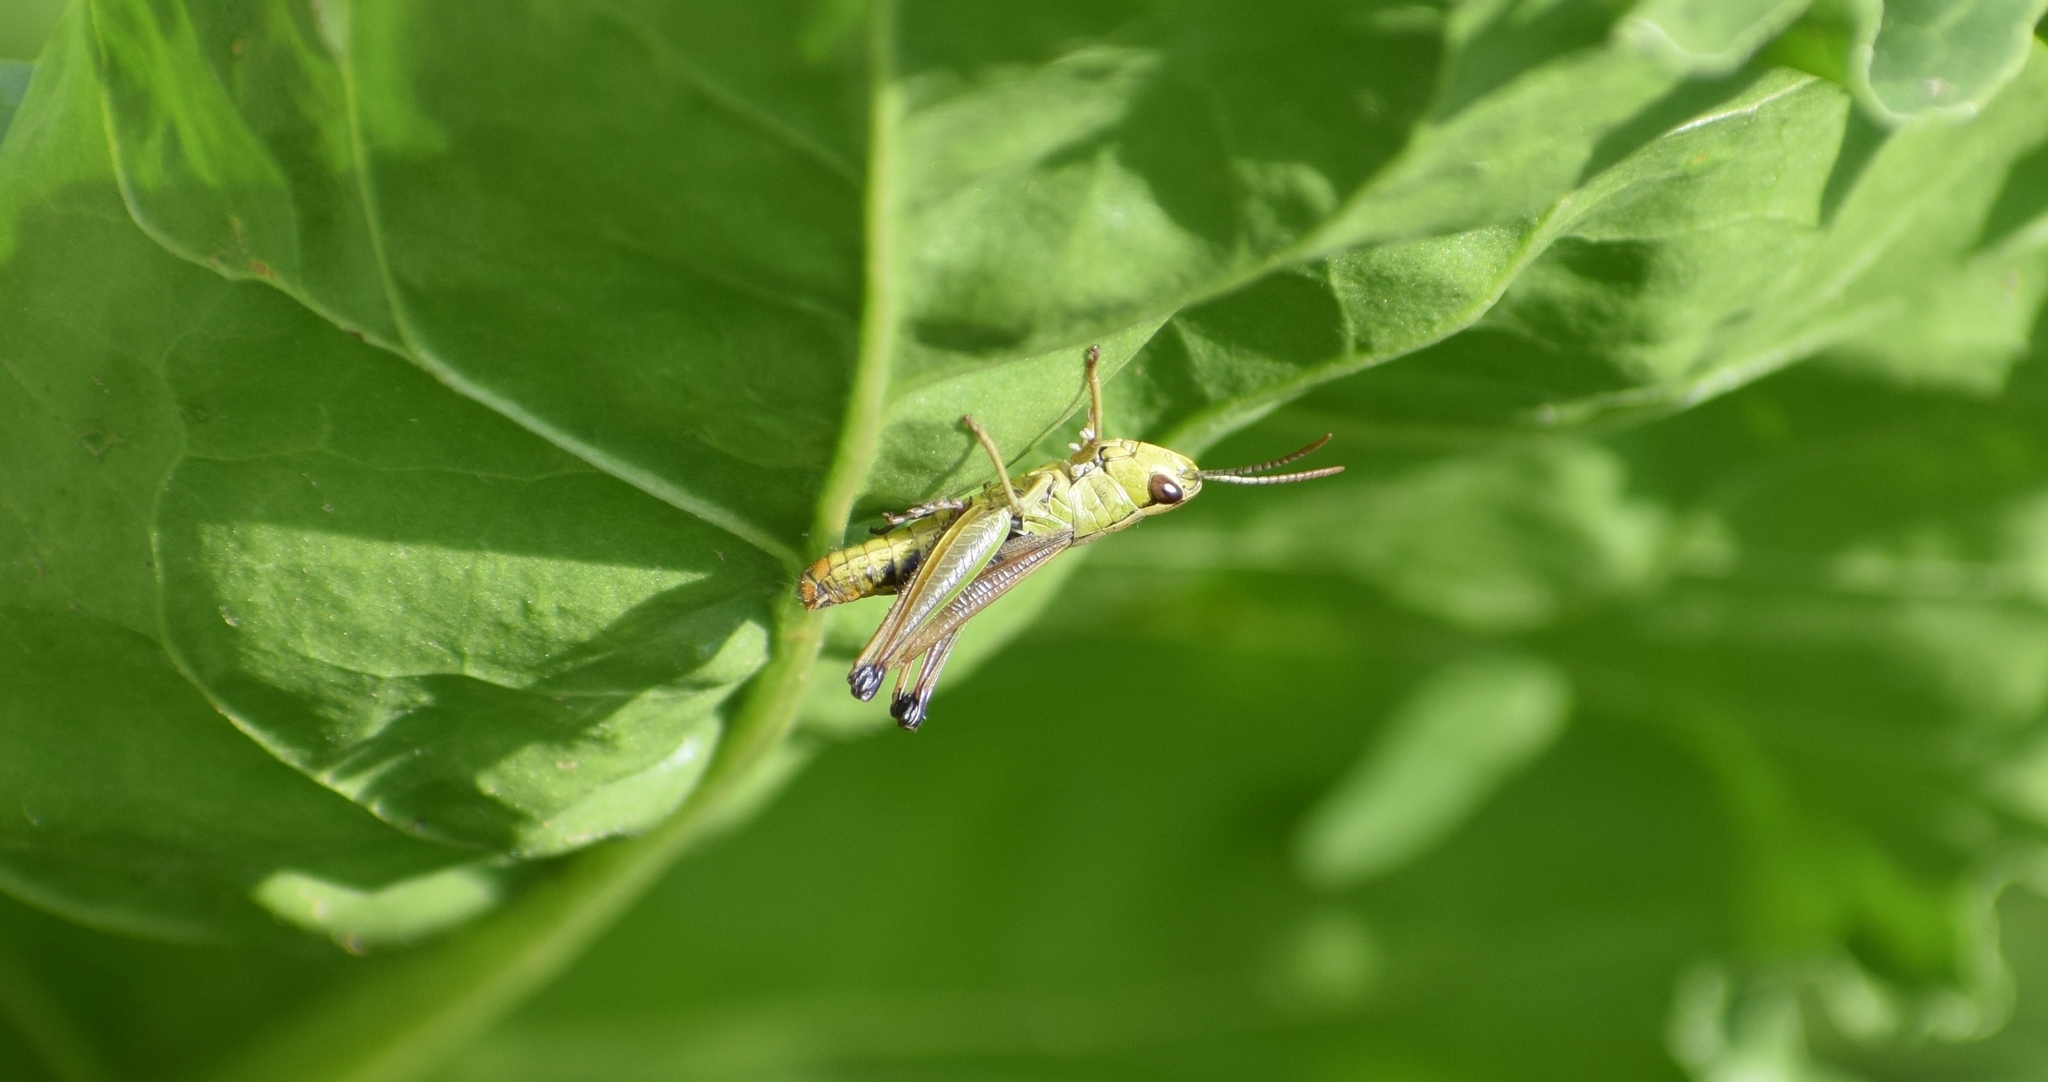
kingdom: Animalia
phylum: Arthropoda
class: Insecta
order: Orthoptera
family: Acrididae
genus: Pseudochorthippus
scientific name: Pseudochorthippus parallelus
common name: Meadow grasshopper
